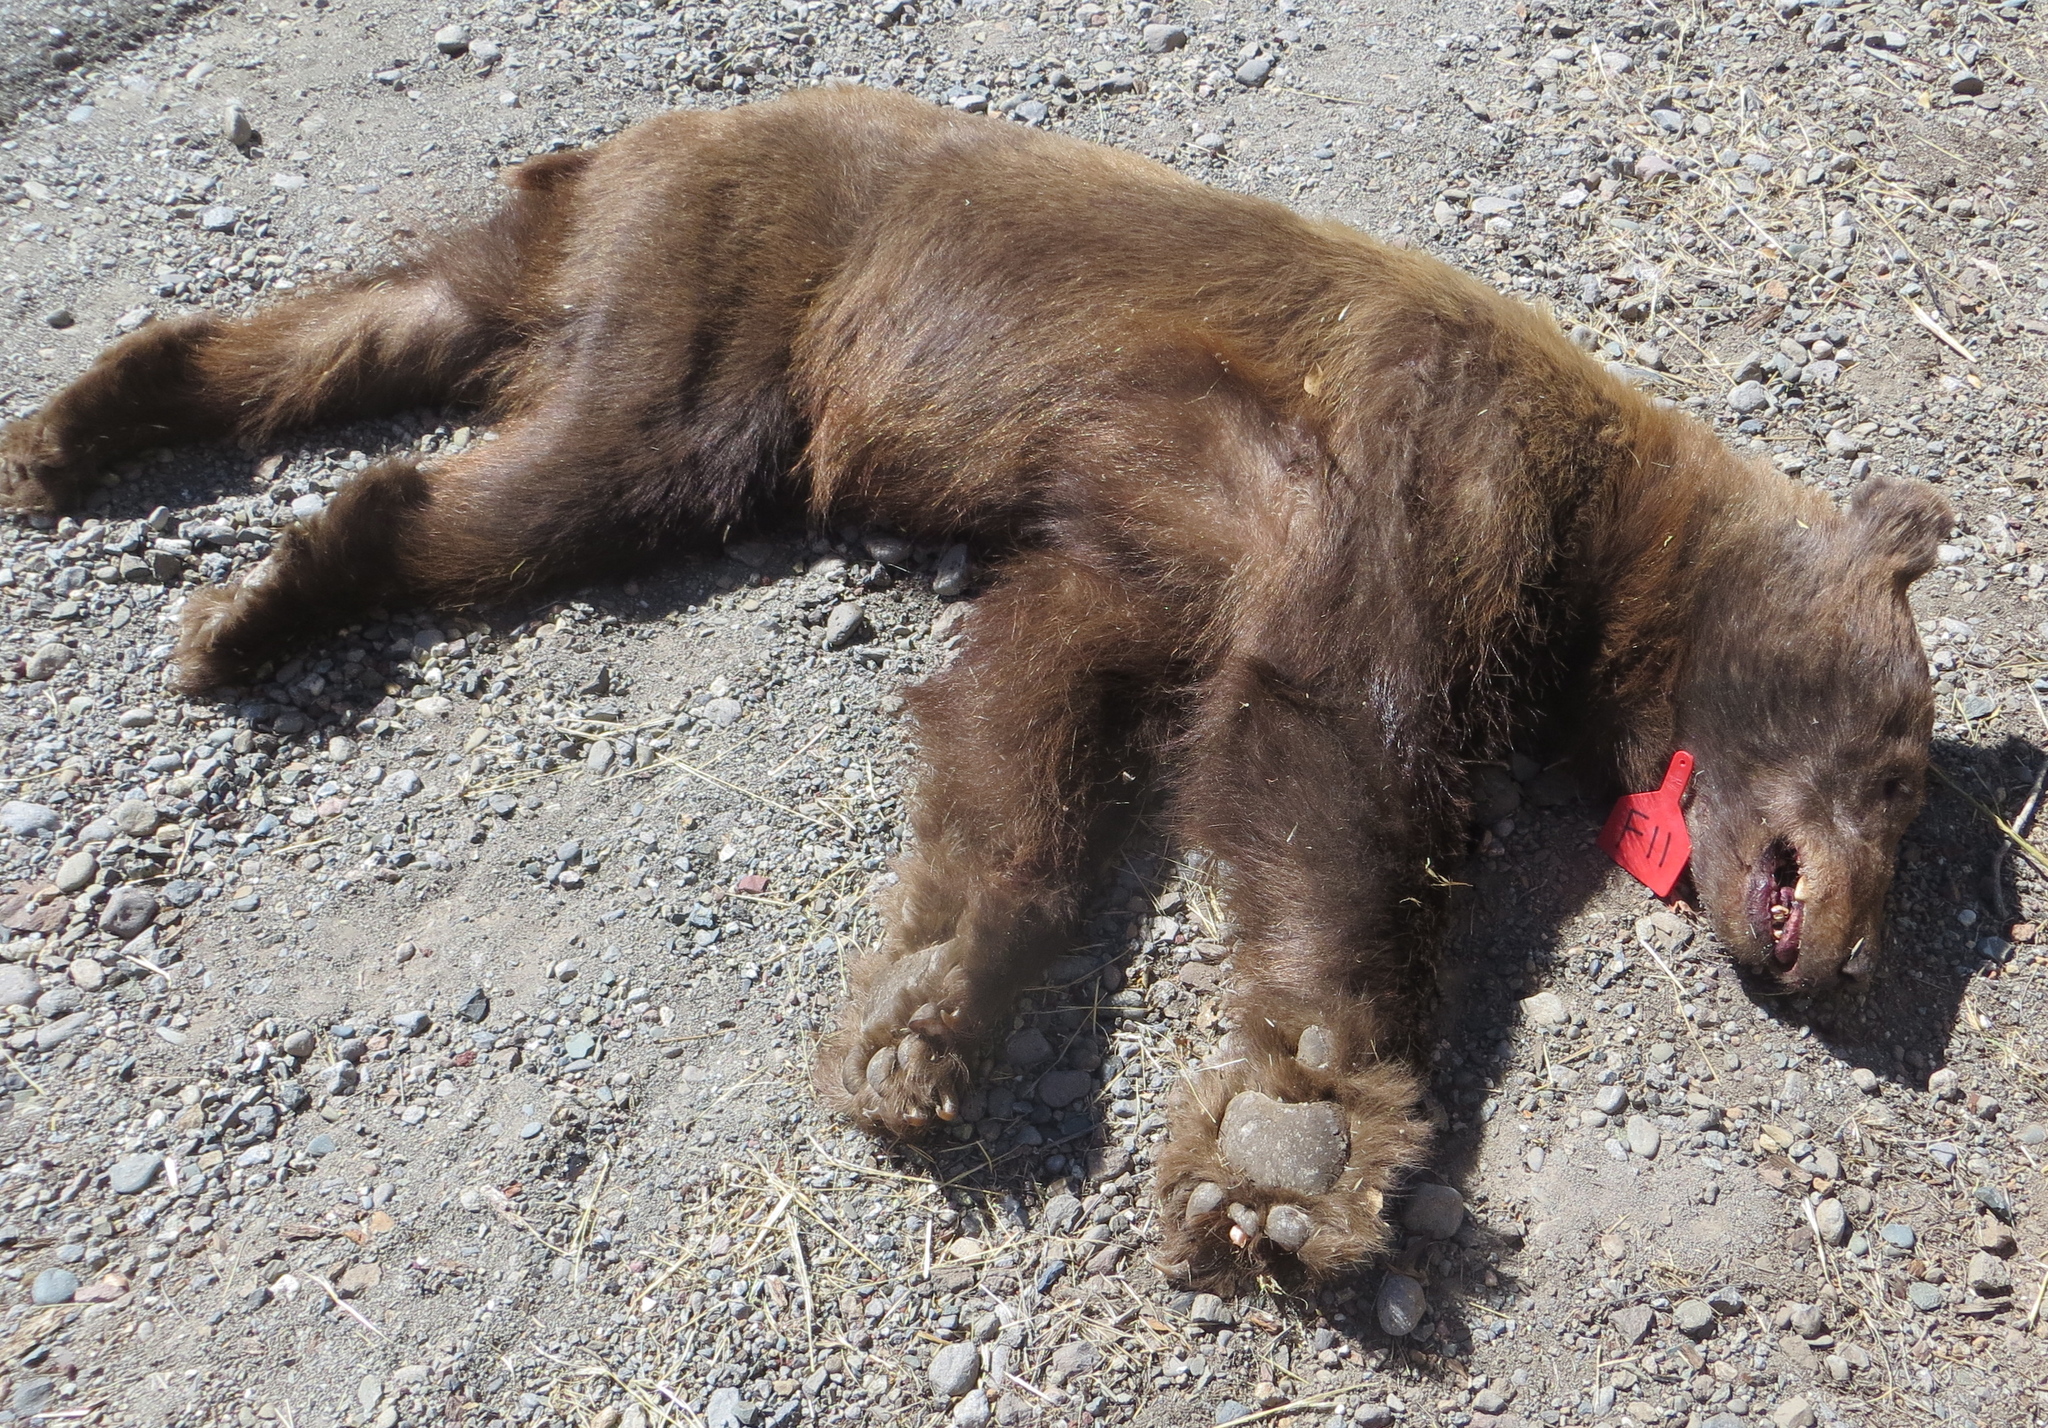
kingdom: Animalia
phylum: Chordata
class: Mammalia
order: Carnivora
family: Ursidae
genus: Ursus
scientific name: Ursus americanus
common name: American black bear
